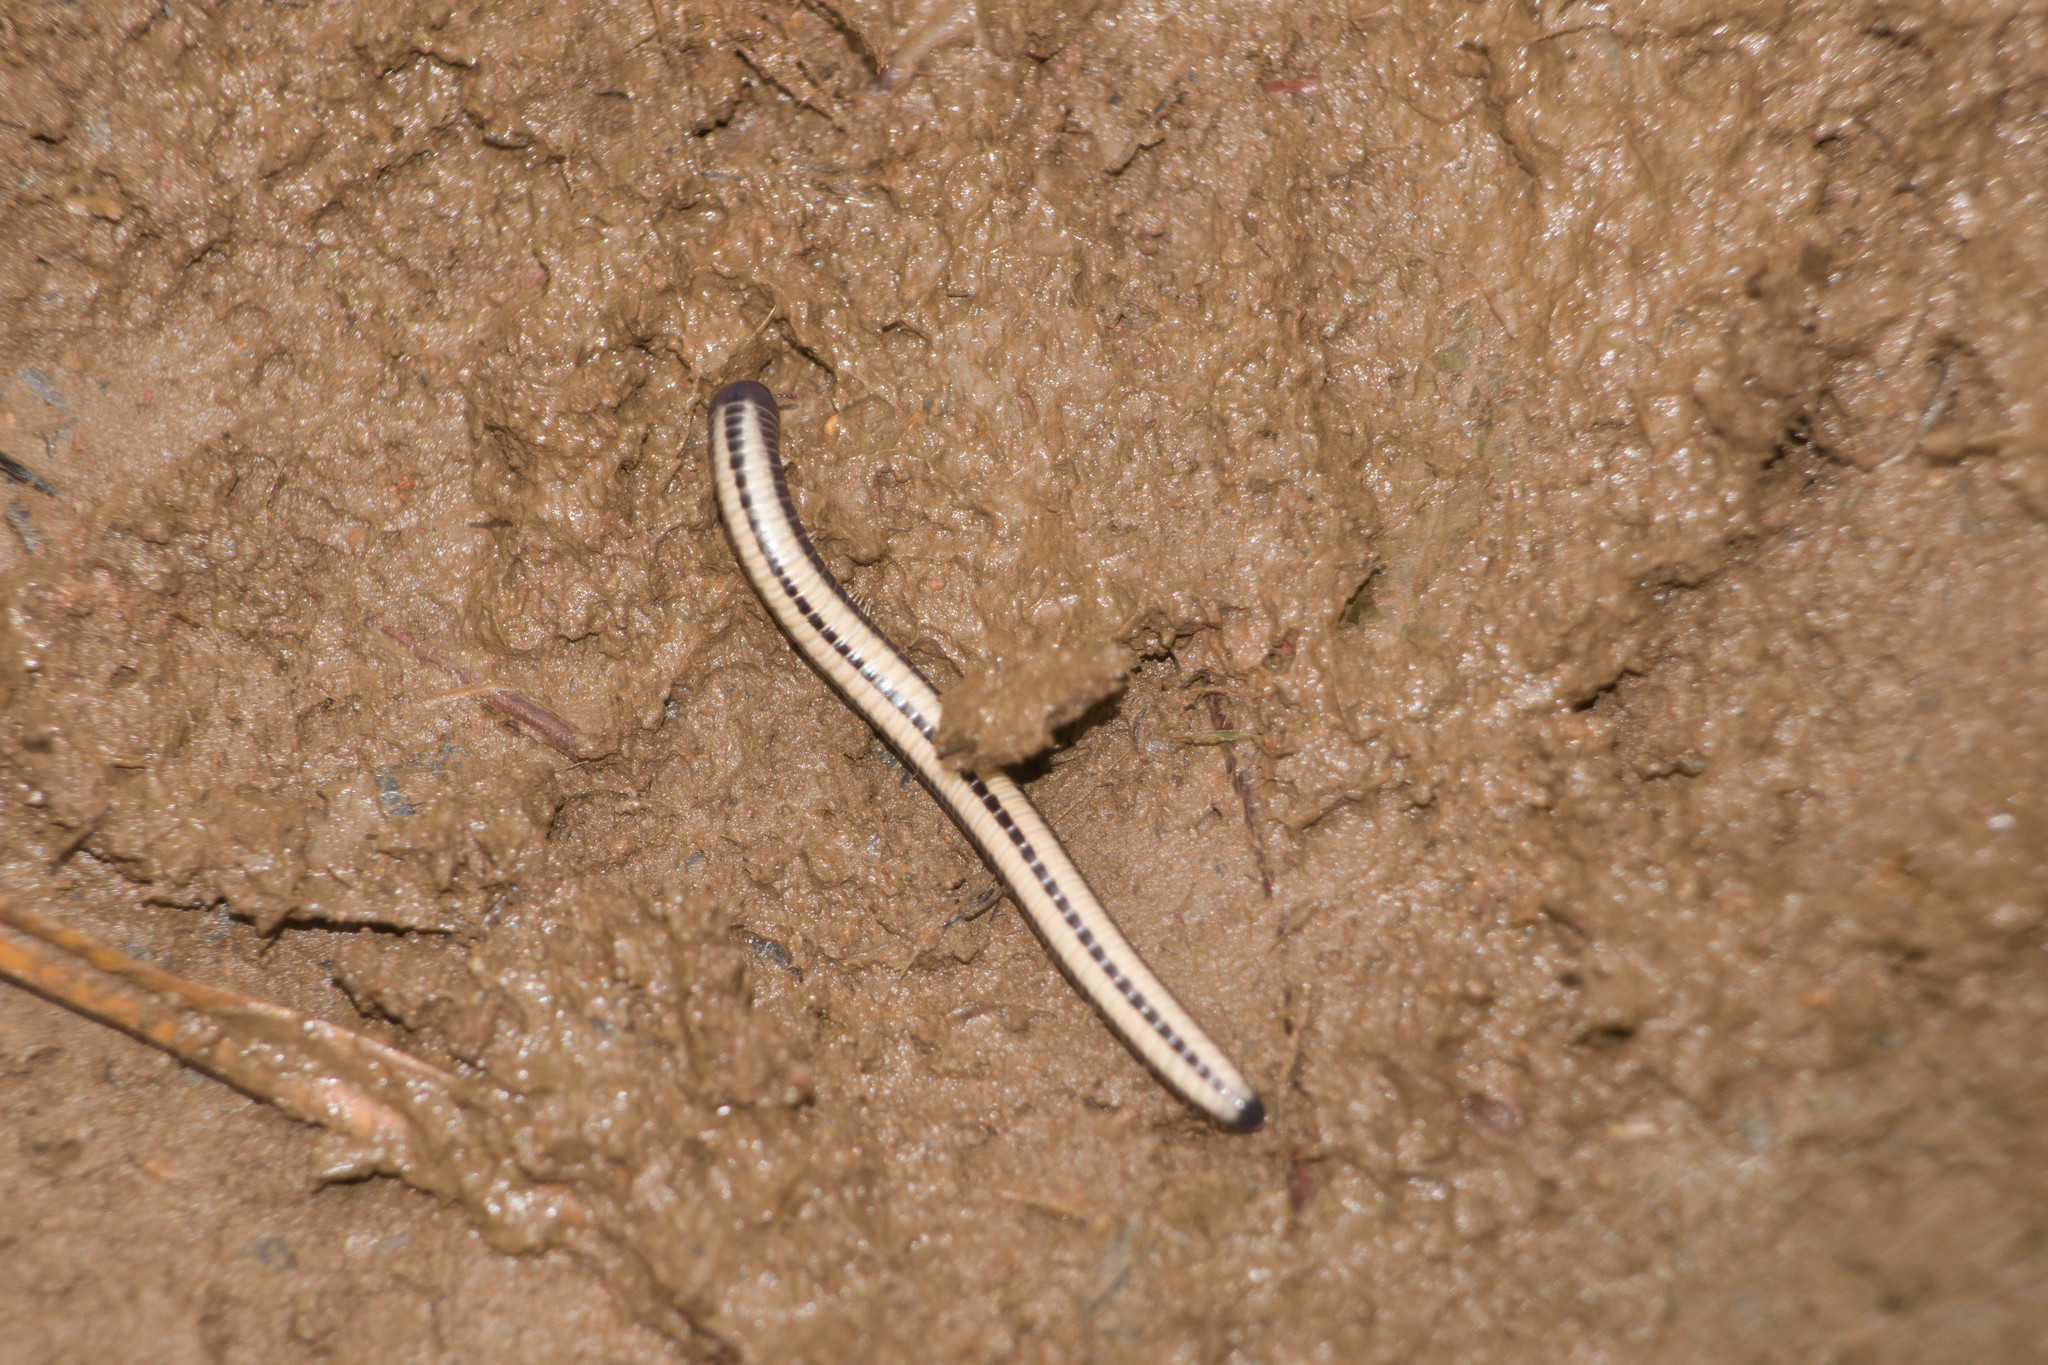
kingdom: Animalia
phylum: Arthropoda
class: Diplopoda
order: Spirobolida
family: Spirobolellidae
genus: Spirobolellus
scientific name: Spirobolellus immigrans
